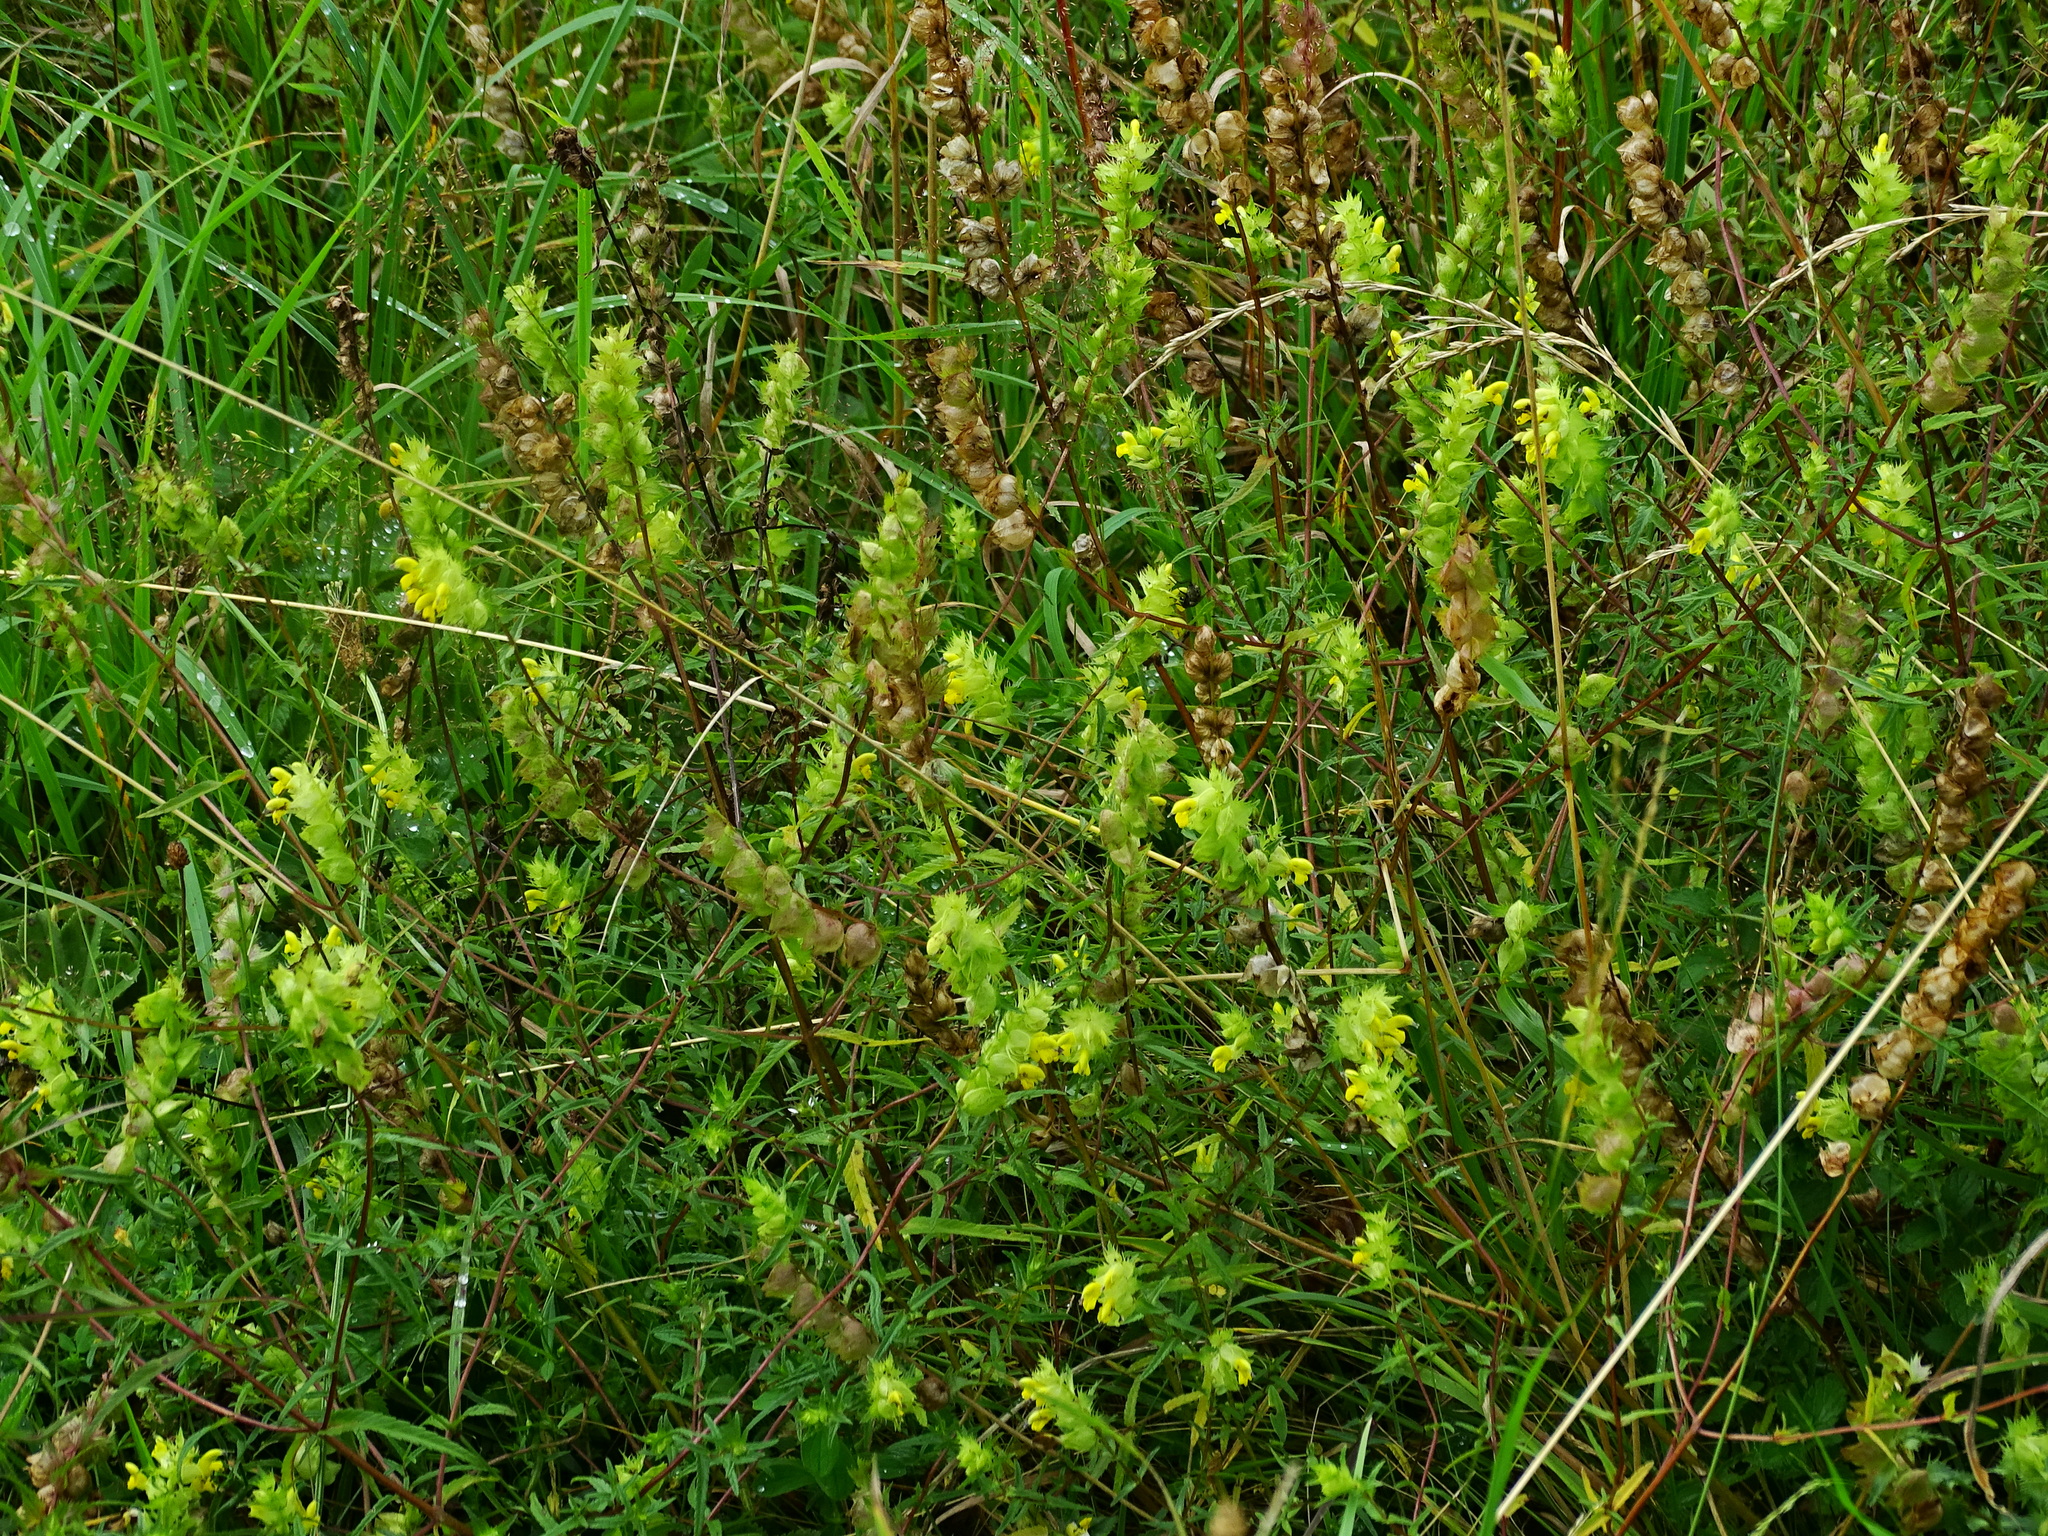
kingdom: Plantae
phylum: Tracheophyta
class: Magnoliopsida
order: Lamiales
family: Orobanchaceae
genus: Rhinanthus
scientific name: Rhinanthus glacialis
